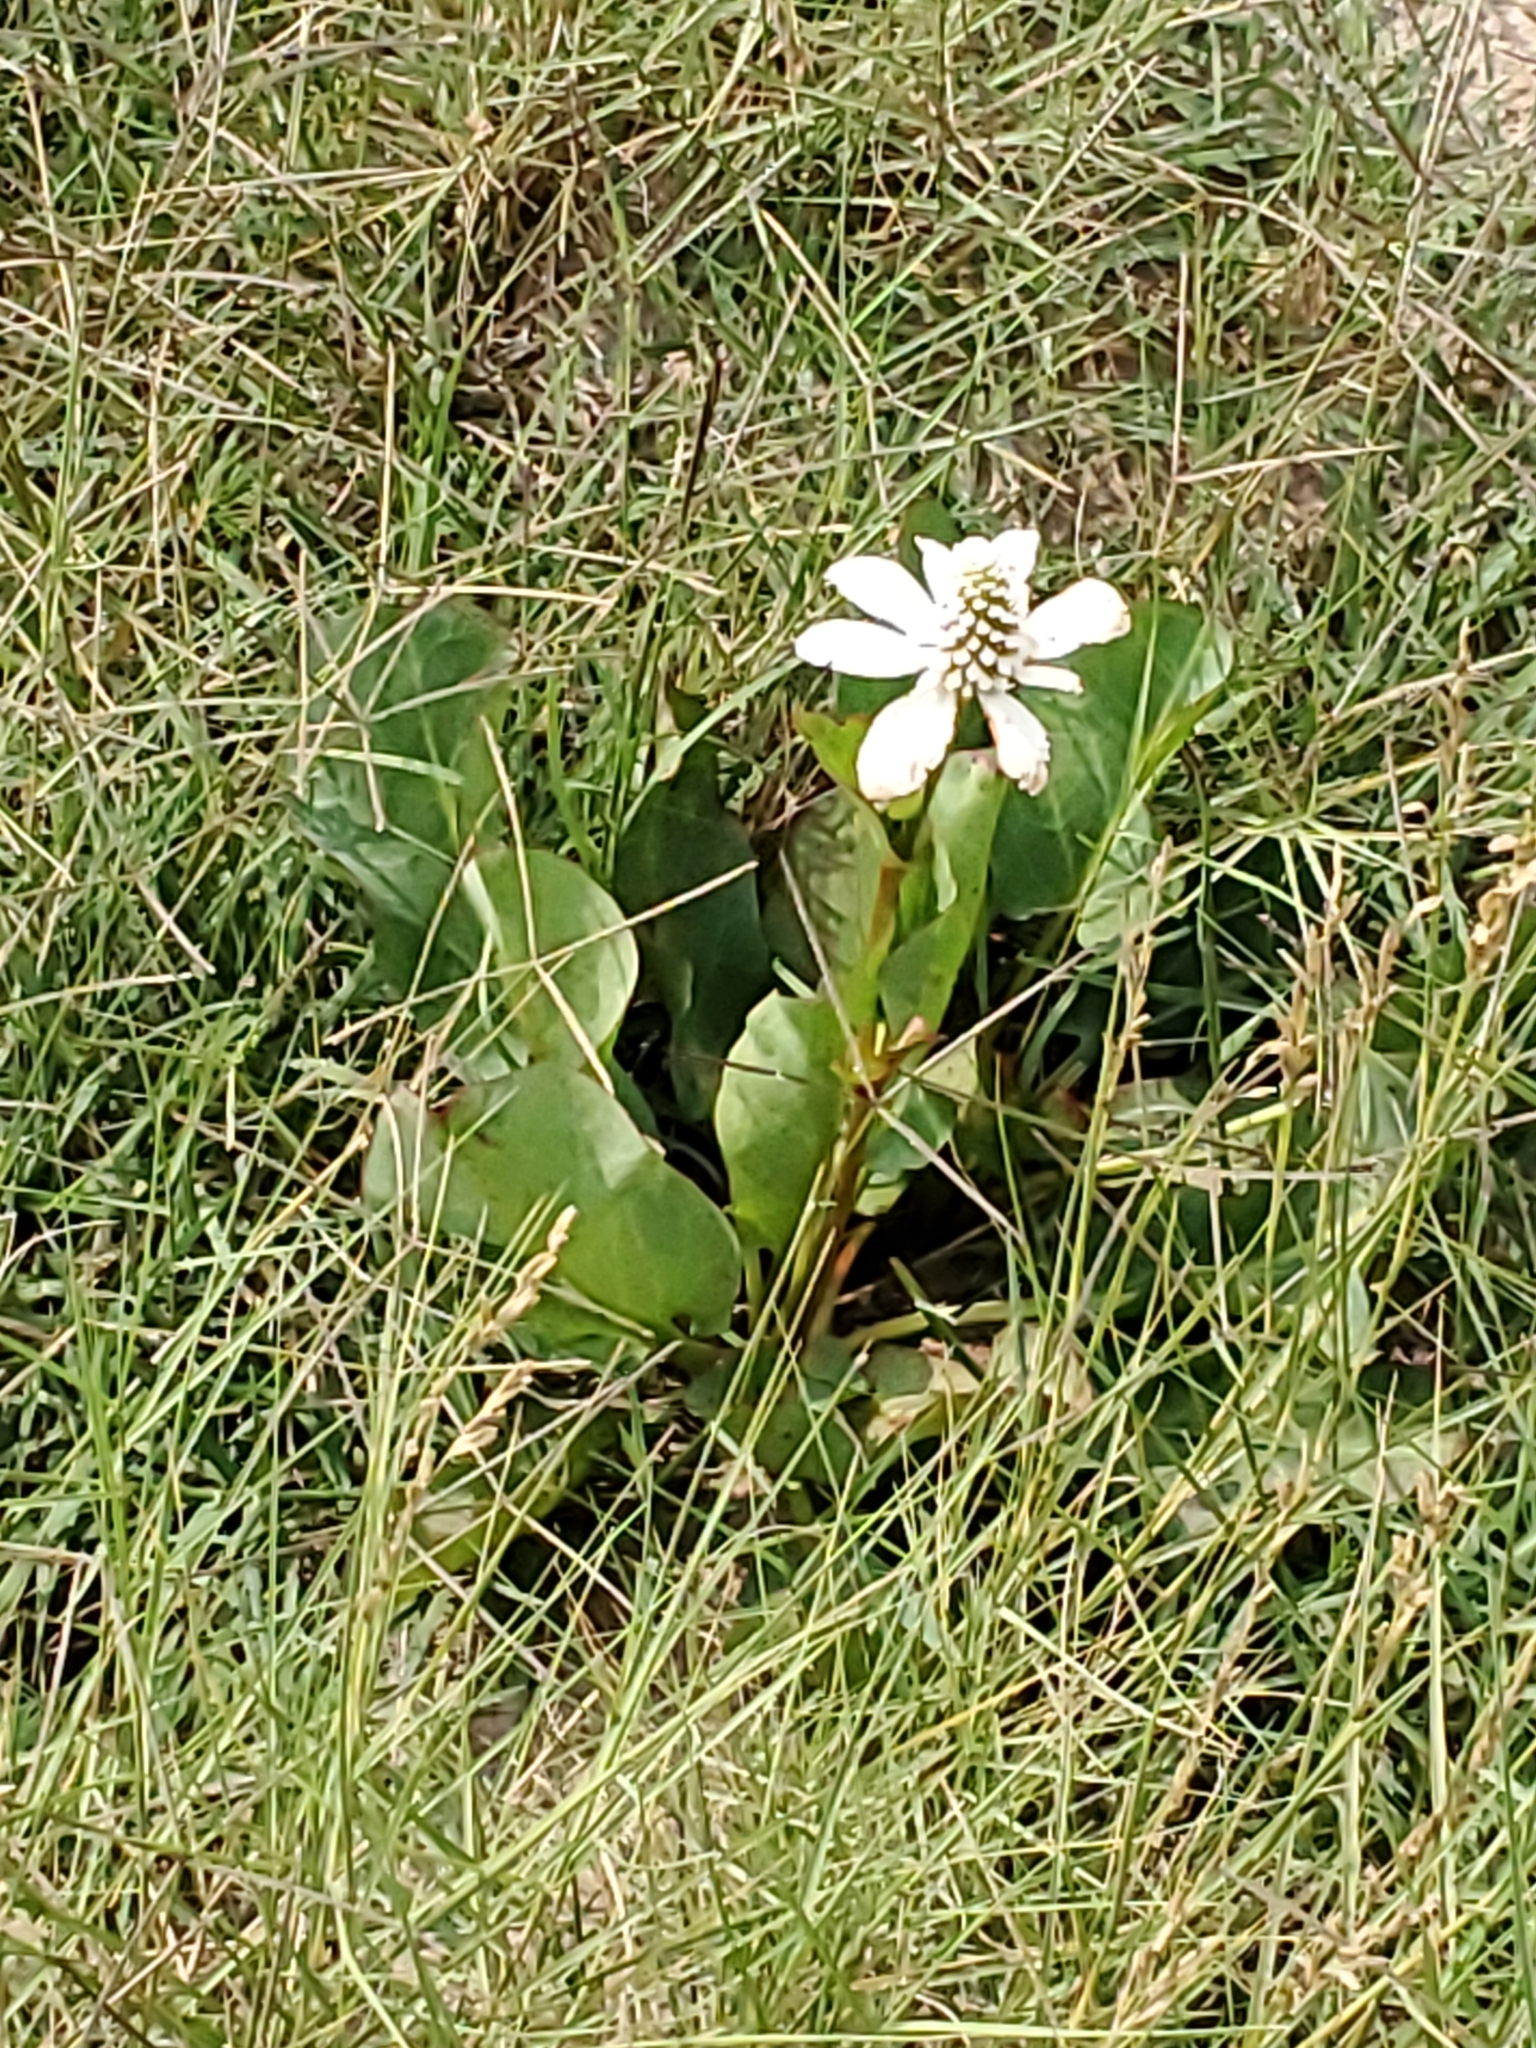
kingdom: Plantae
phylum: Tracheophyta
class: Magnoliopsida
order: Piperales
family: Saururaceae
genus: Anemopsis
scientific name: Anemopsis californica
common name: Apache-beads
